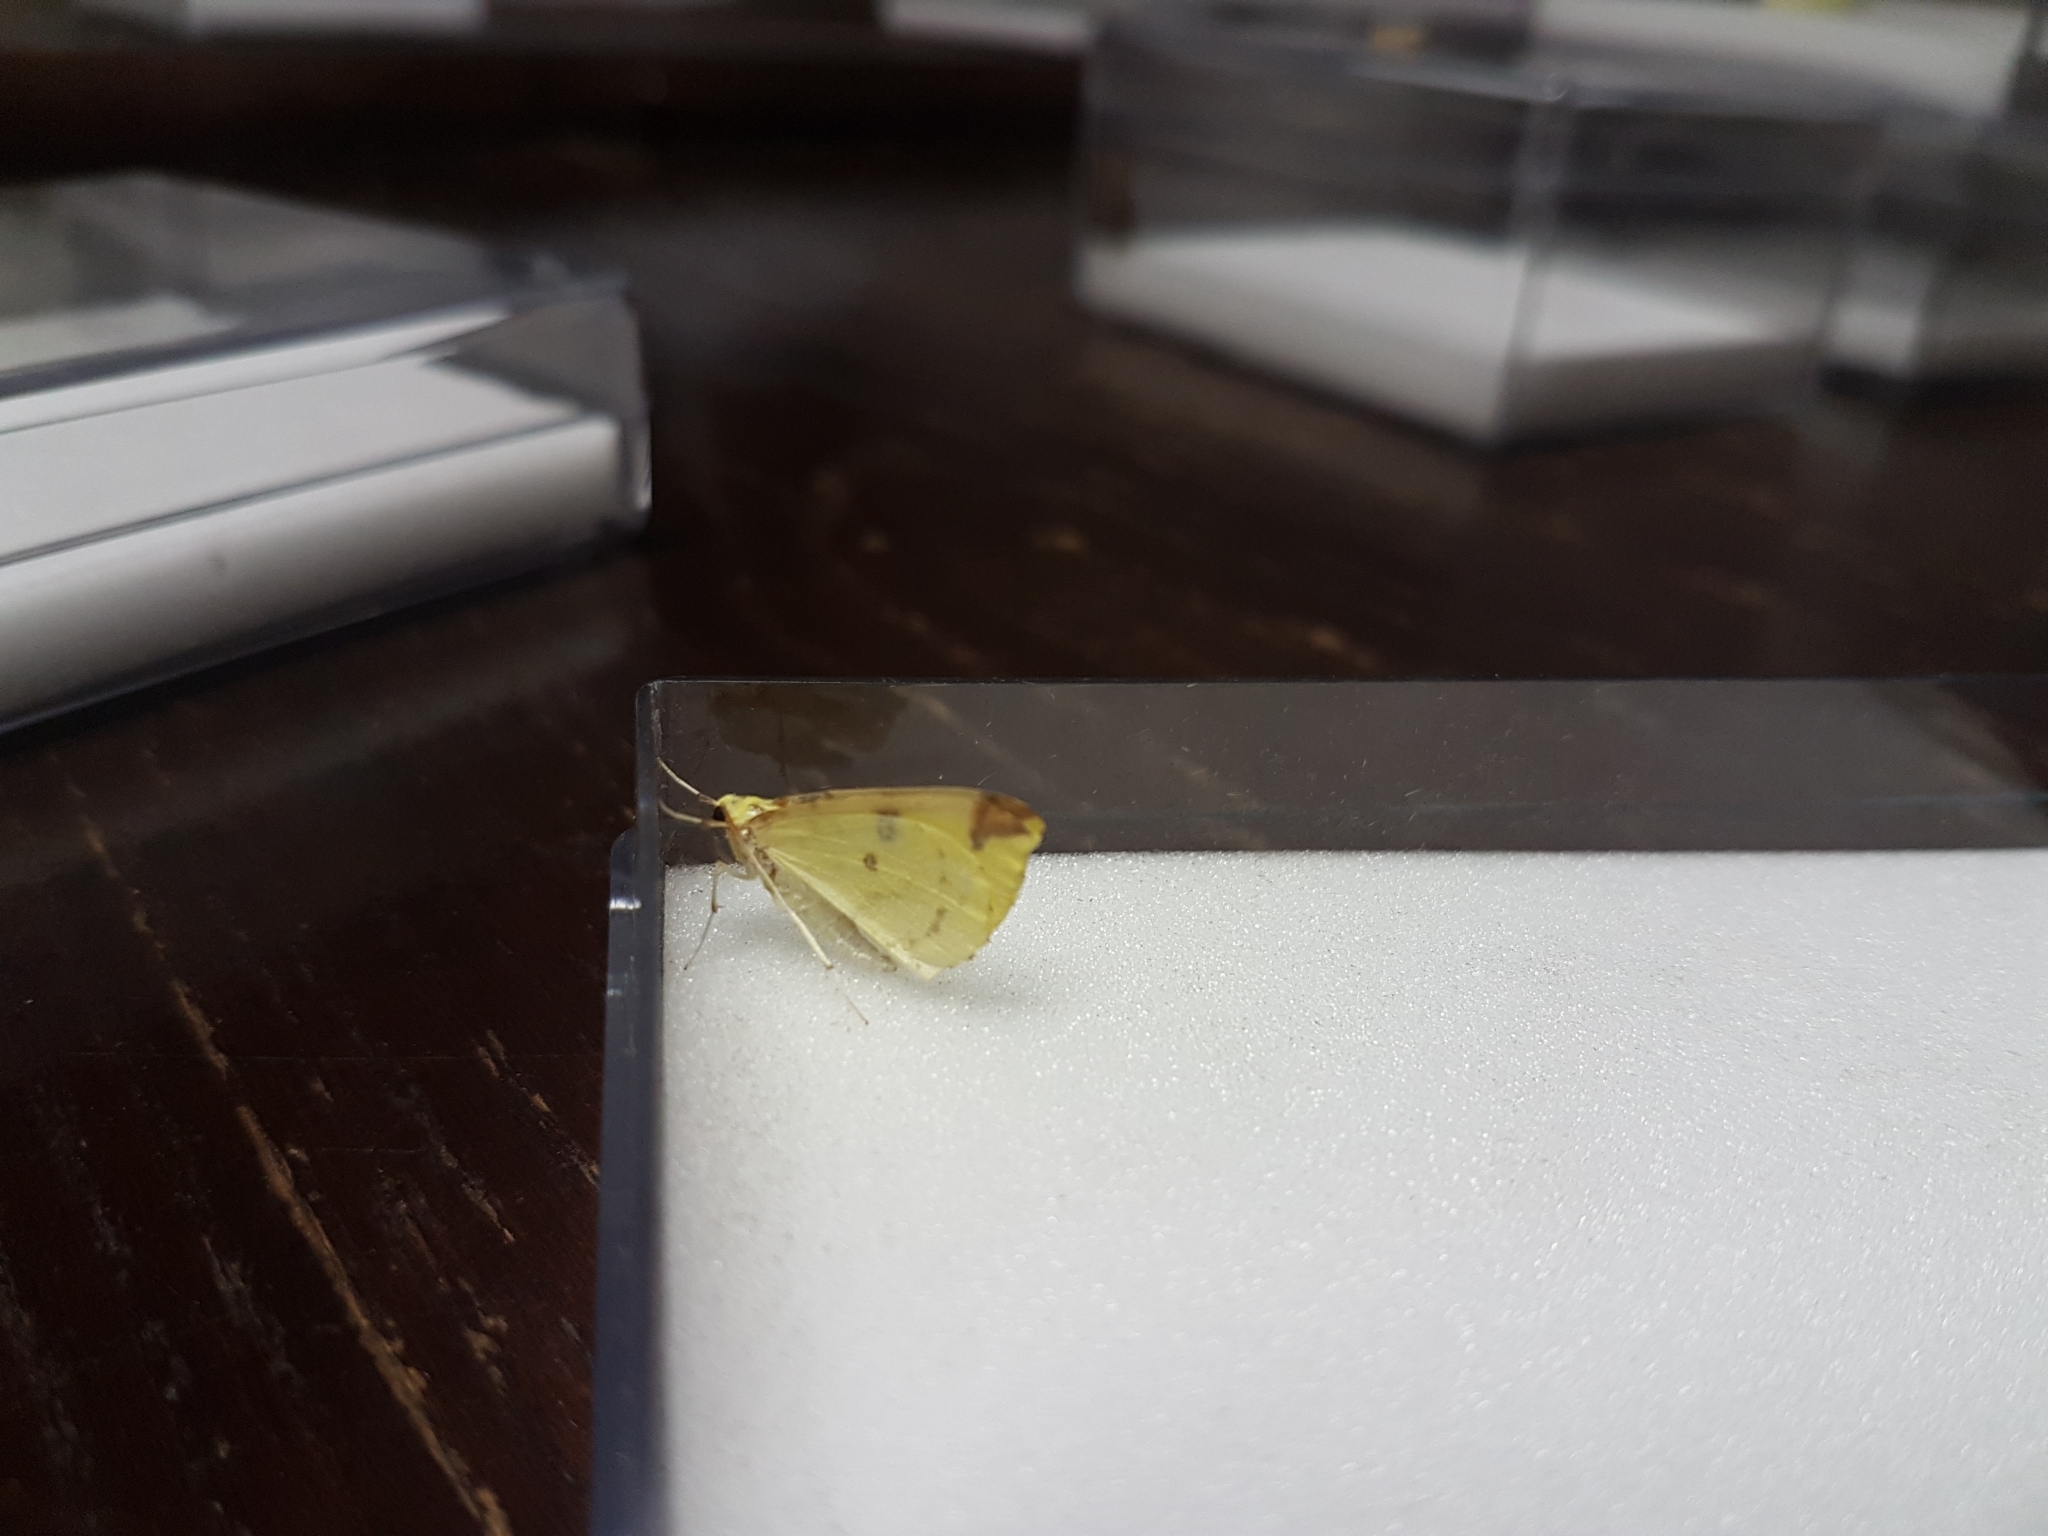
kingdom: Animalia
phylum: Arthropoda
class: Insecta
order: Lepidoptera
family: Geometridae
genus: Opisthograptis
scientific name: Opisthograptis luteolata
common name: Brimstone moth
